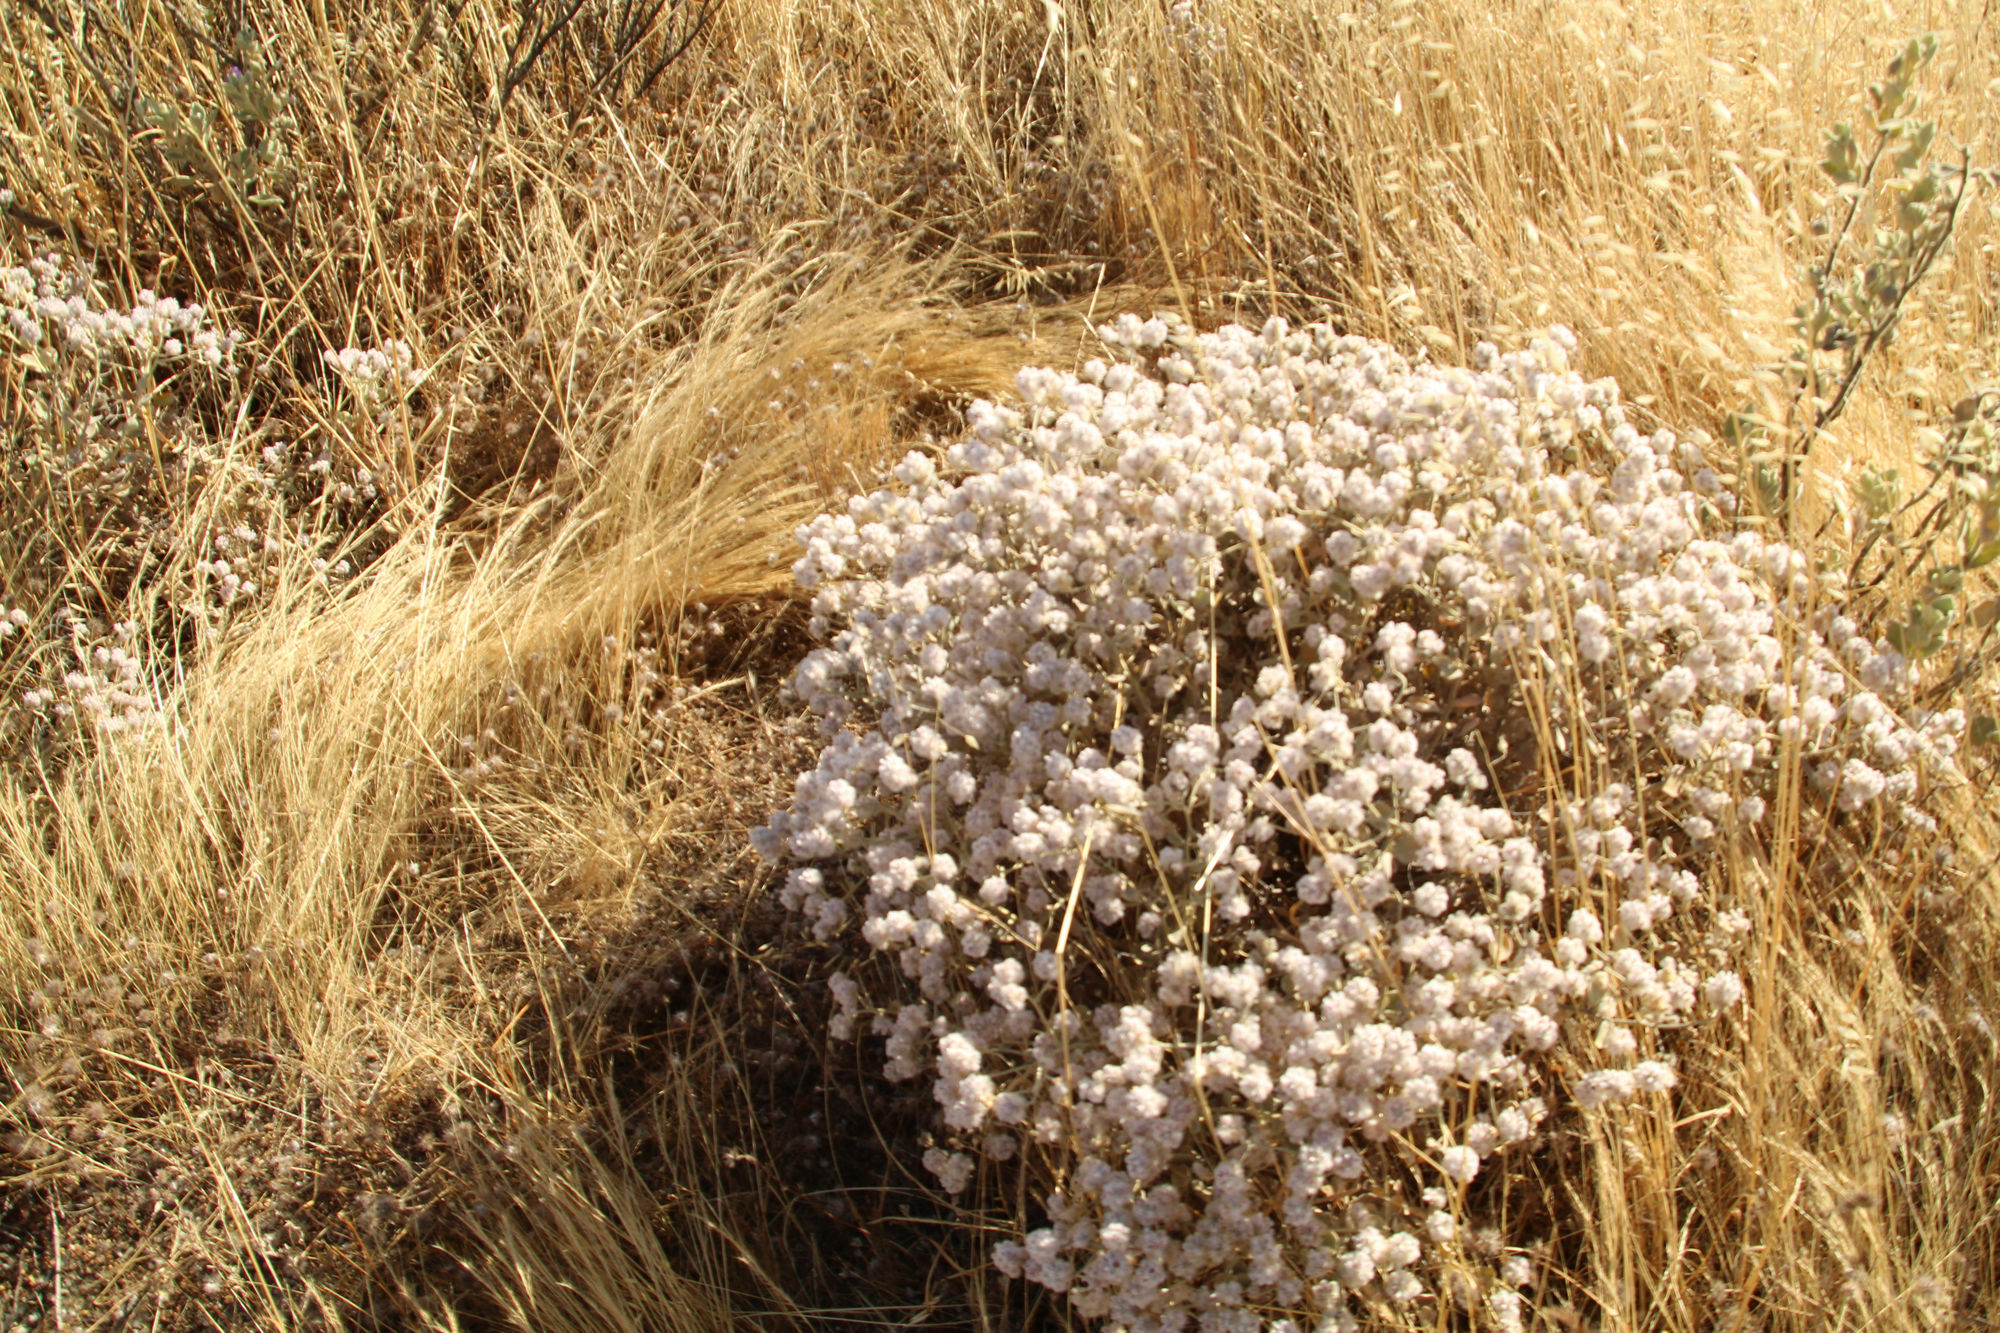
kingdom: Plantae
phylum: Tracheophyta
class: Magnoliopsida
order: Caryophyllales
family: Amaranthaceae
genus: Ptilotus
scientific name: Ptilotus obovatus
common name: Cottonbush
